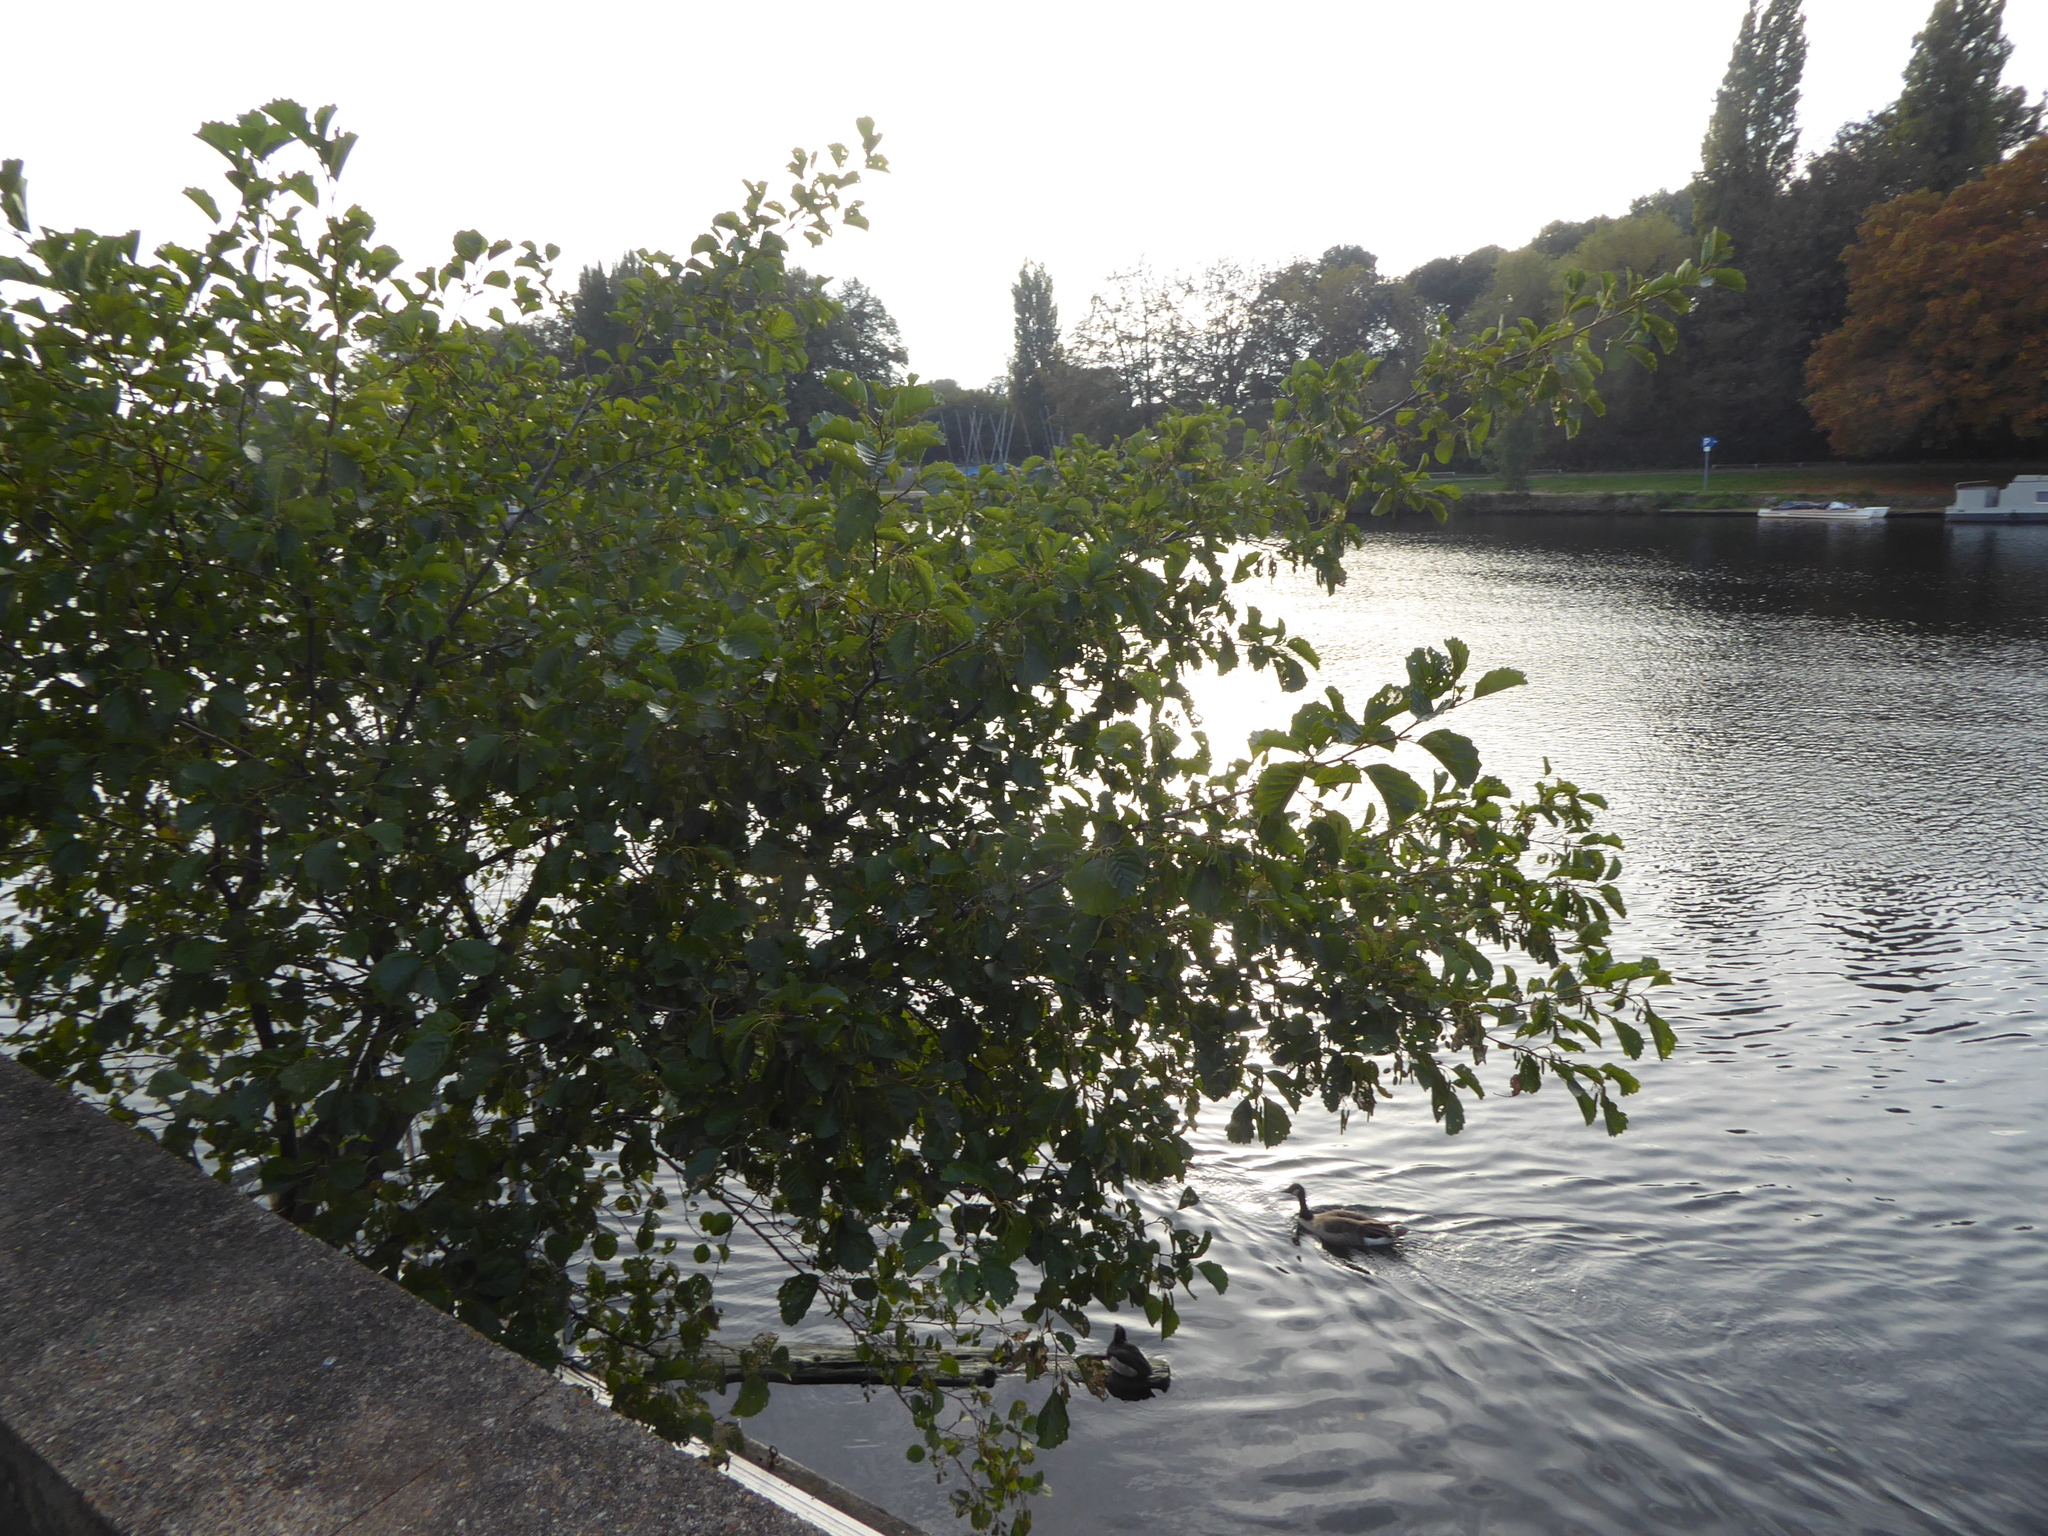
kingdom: Plantae
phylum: Tracheophyta
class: Magnoliopsida
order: Fagales
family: Betulaceae
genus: Alnus
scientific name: Alnus glutinosa
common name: Black alder
